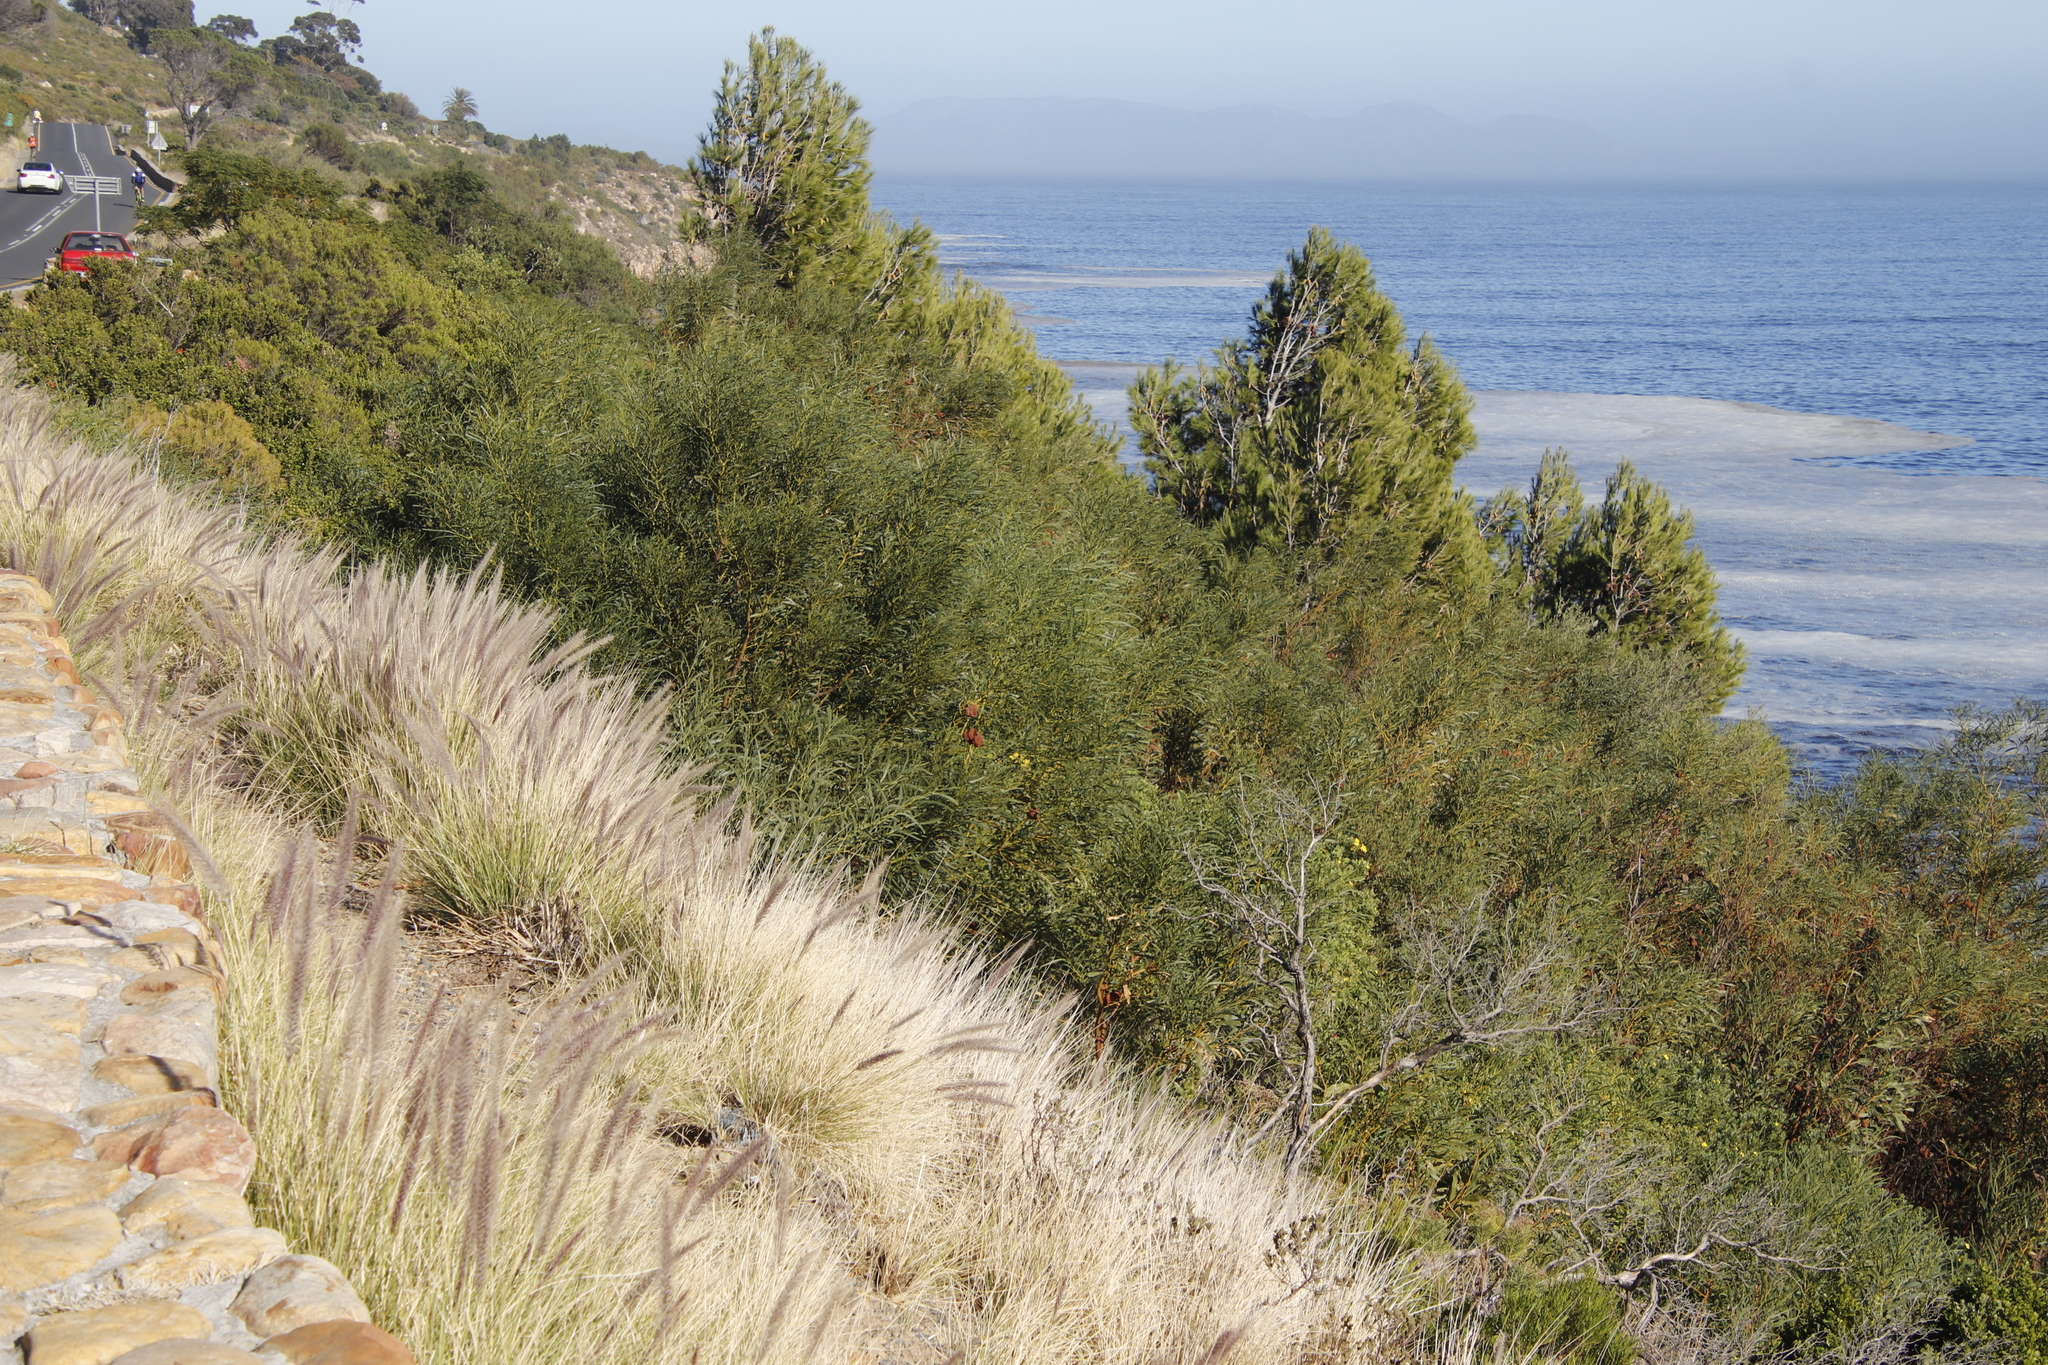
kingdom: Plantae
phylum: Tracheophyta
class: Magnoliopsida
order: Fabales
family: Fabaceae
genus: Acacia
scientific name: Acacia saligna
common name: Orange wattle
